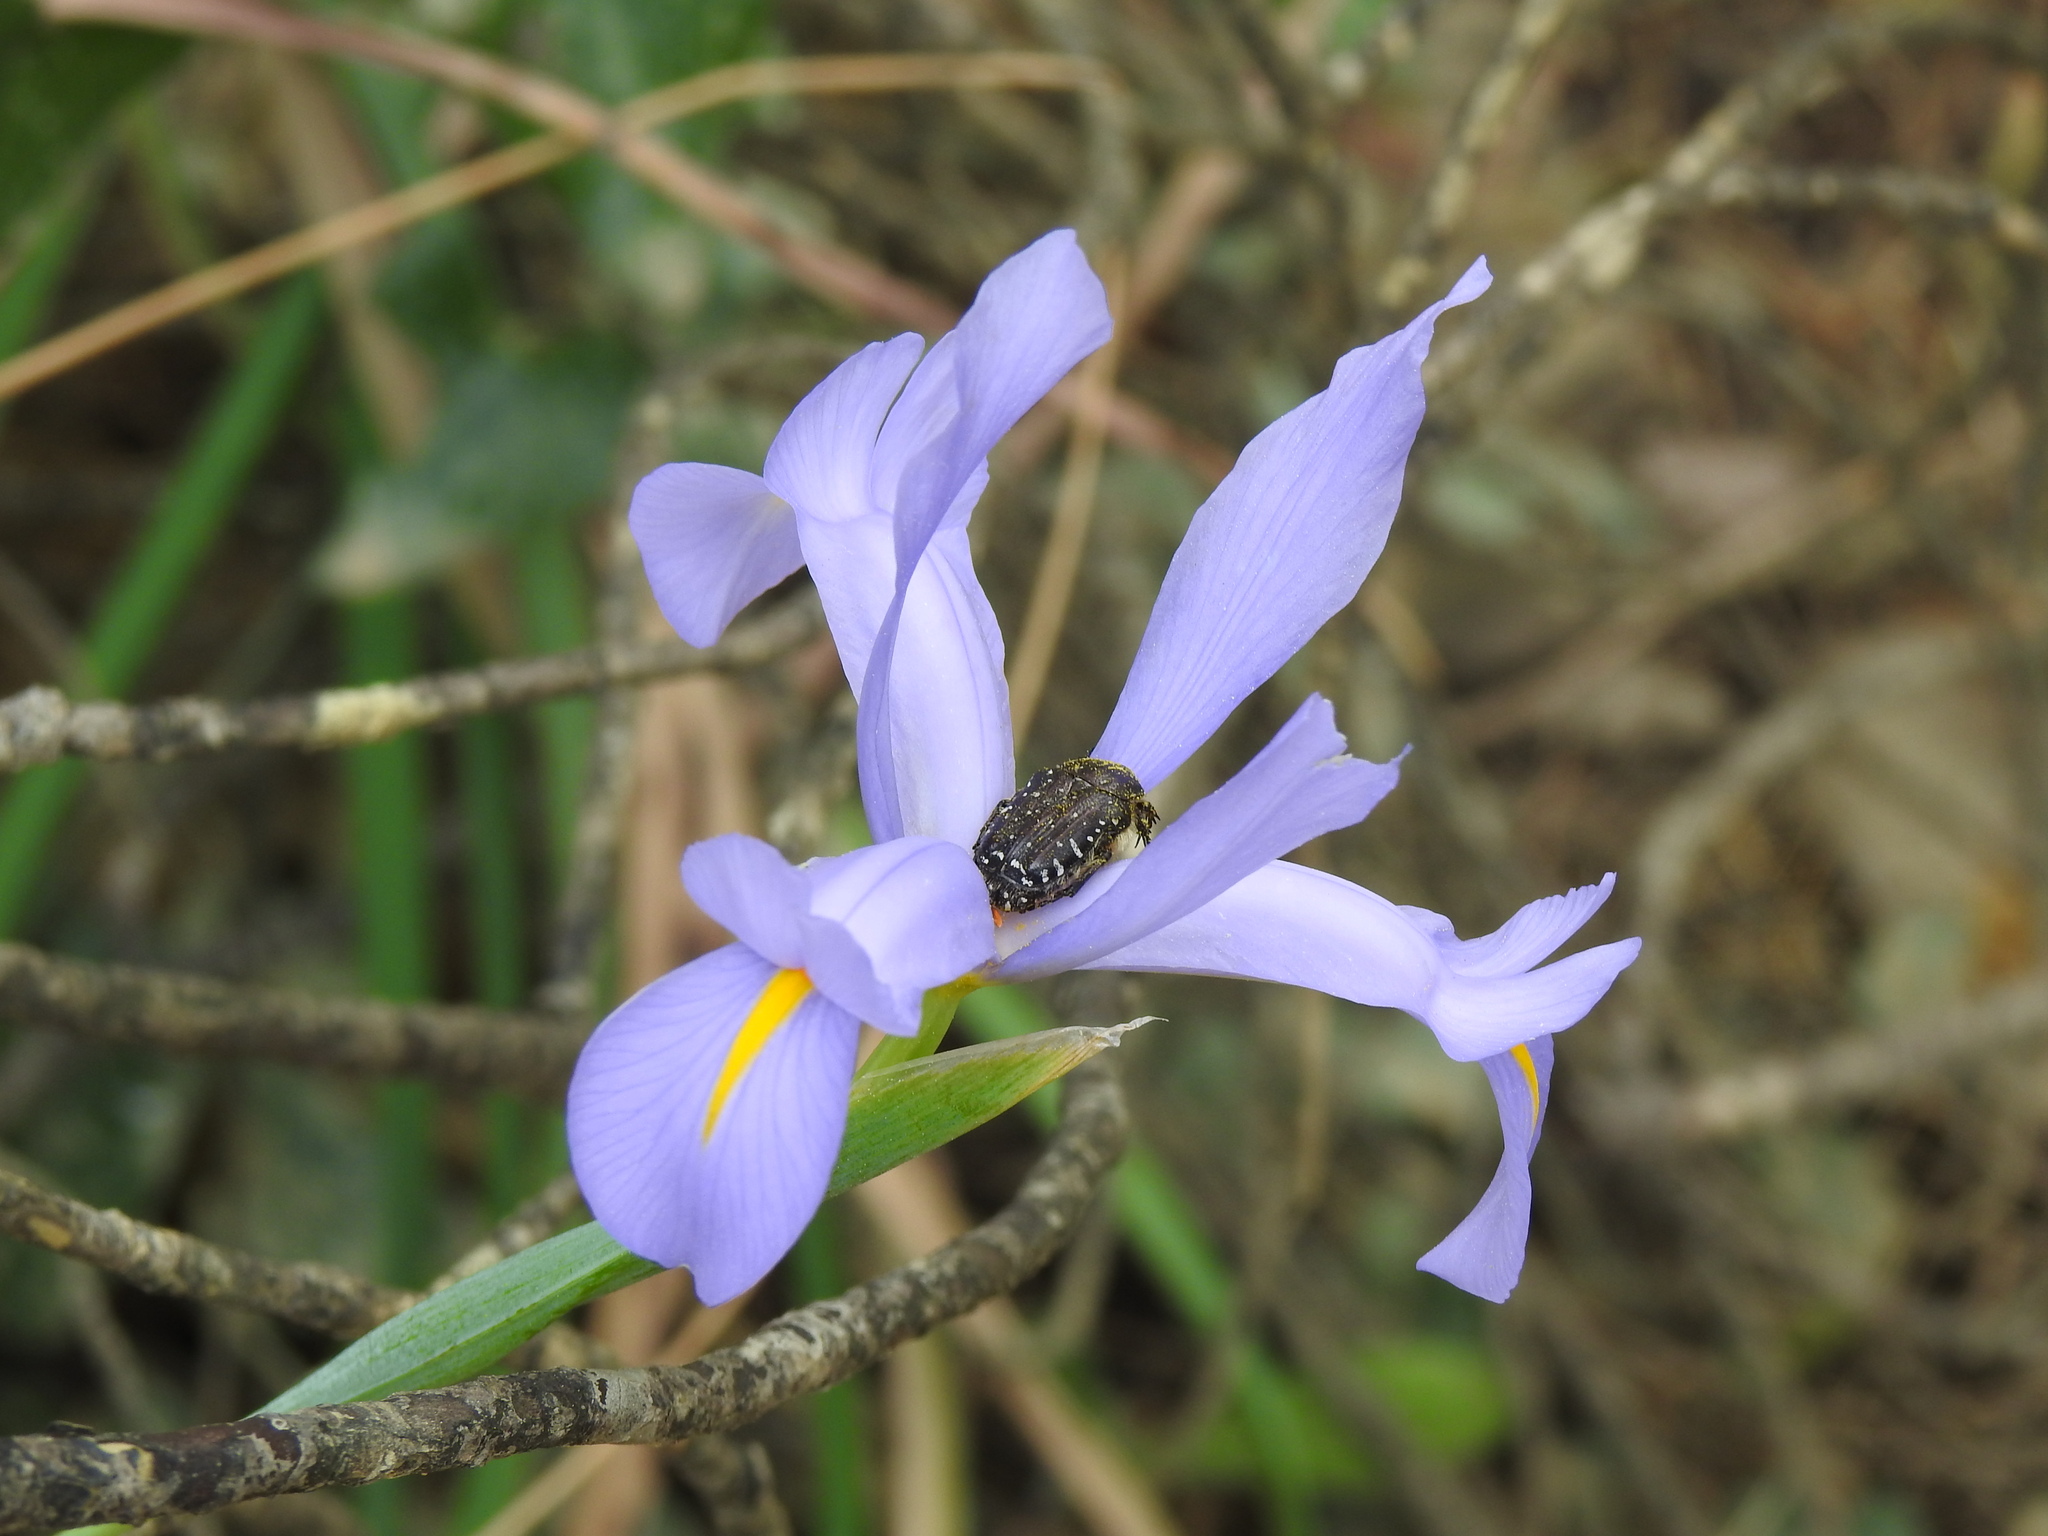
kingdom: Animalia
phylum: Arthropoda
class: Insecta
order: Coleoptera
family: Scarabaeidae
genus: Oxythyrea
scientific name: Oxythyrea funesta
